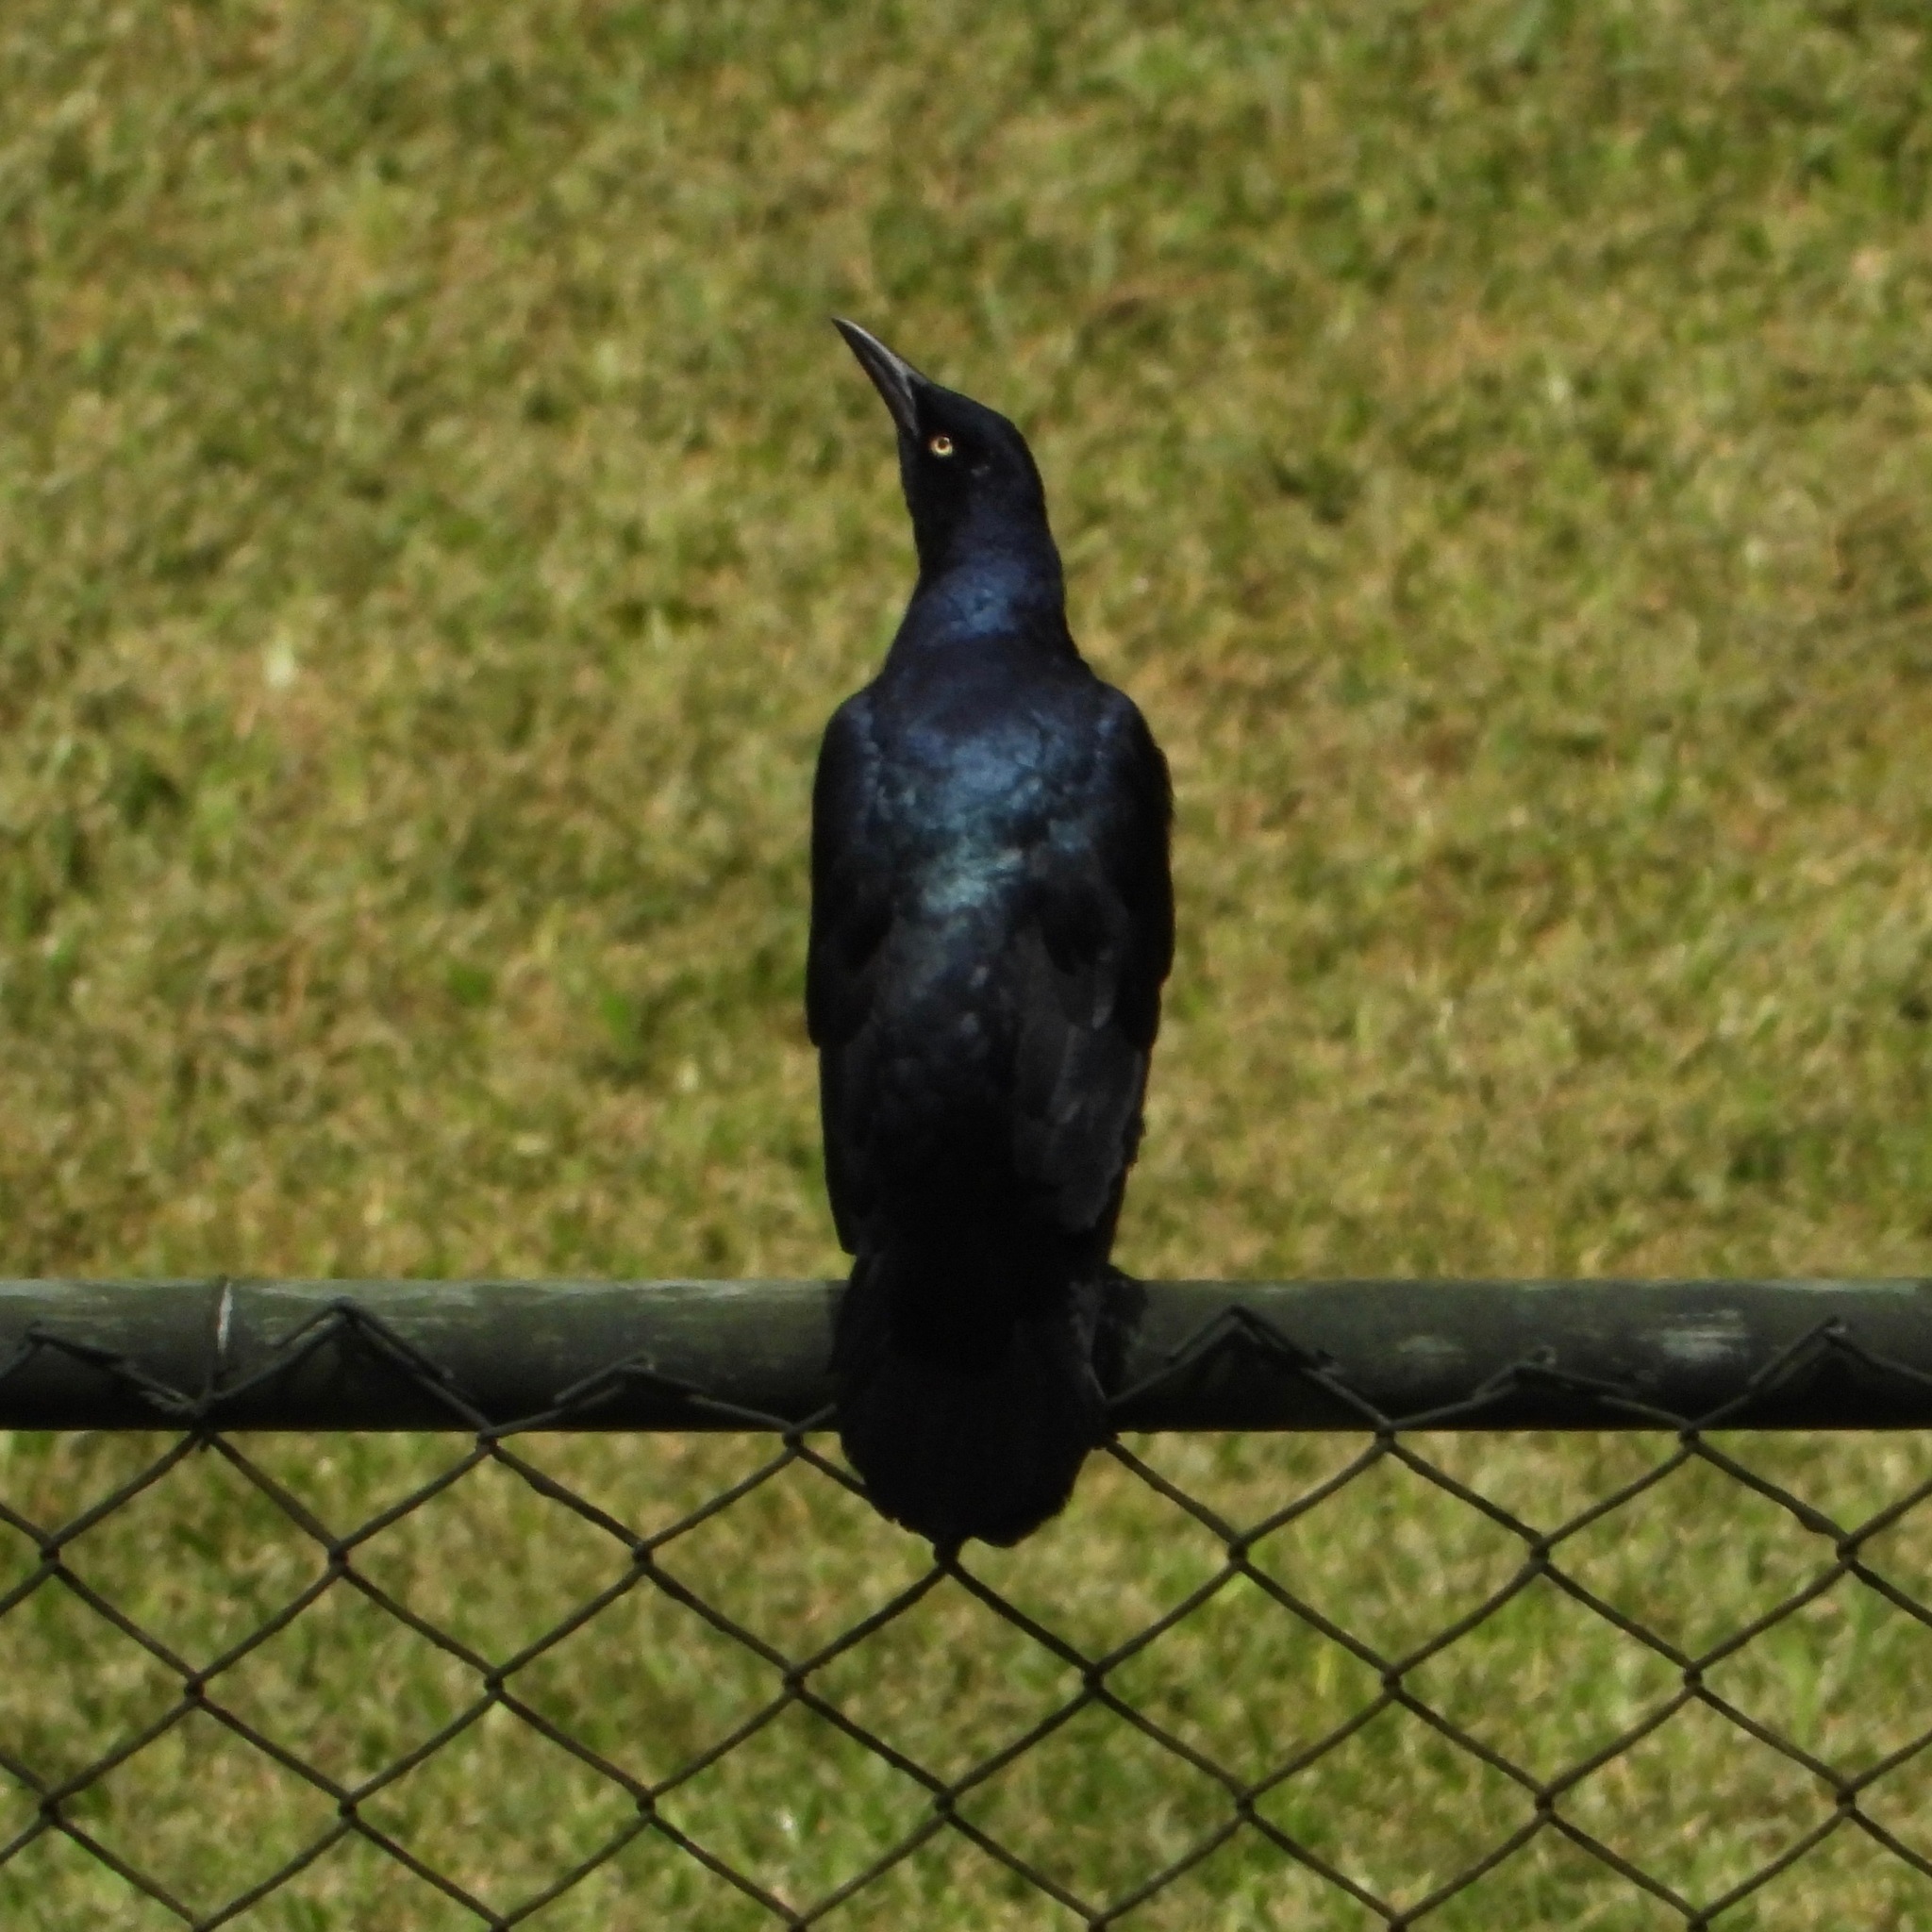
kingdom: Animalia
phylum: Chordata
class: Aves
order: Passeriformes
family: Icteridae
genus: Quiscalus
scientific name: Quiscalus mexicanus
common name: Great-tailed grackle
